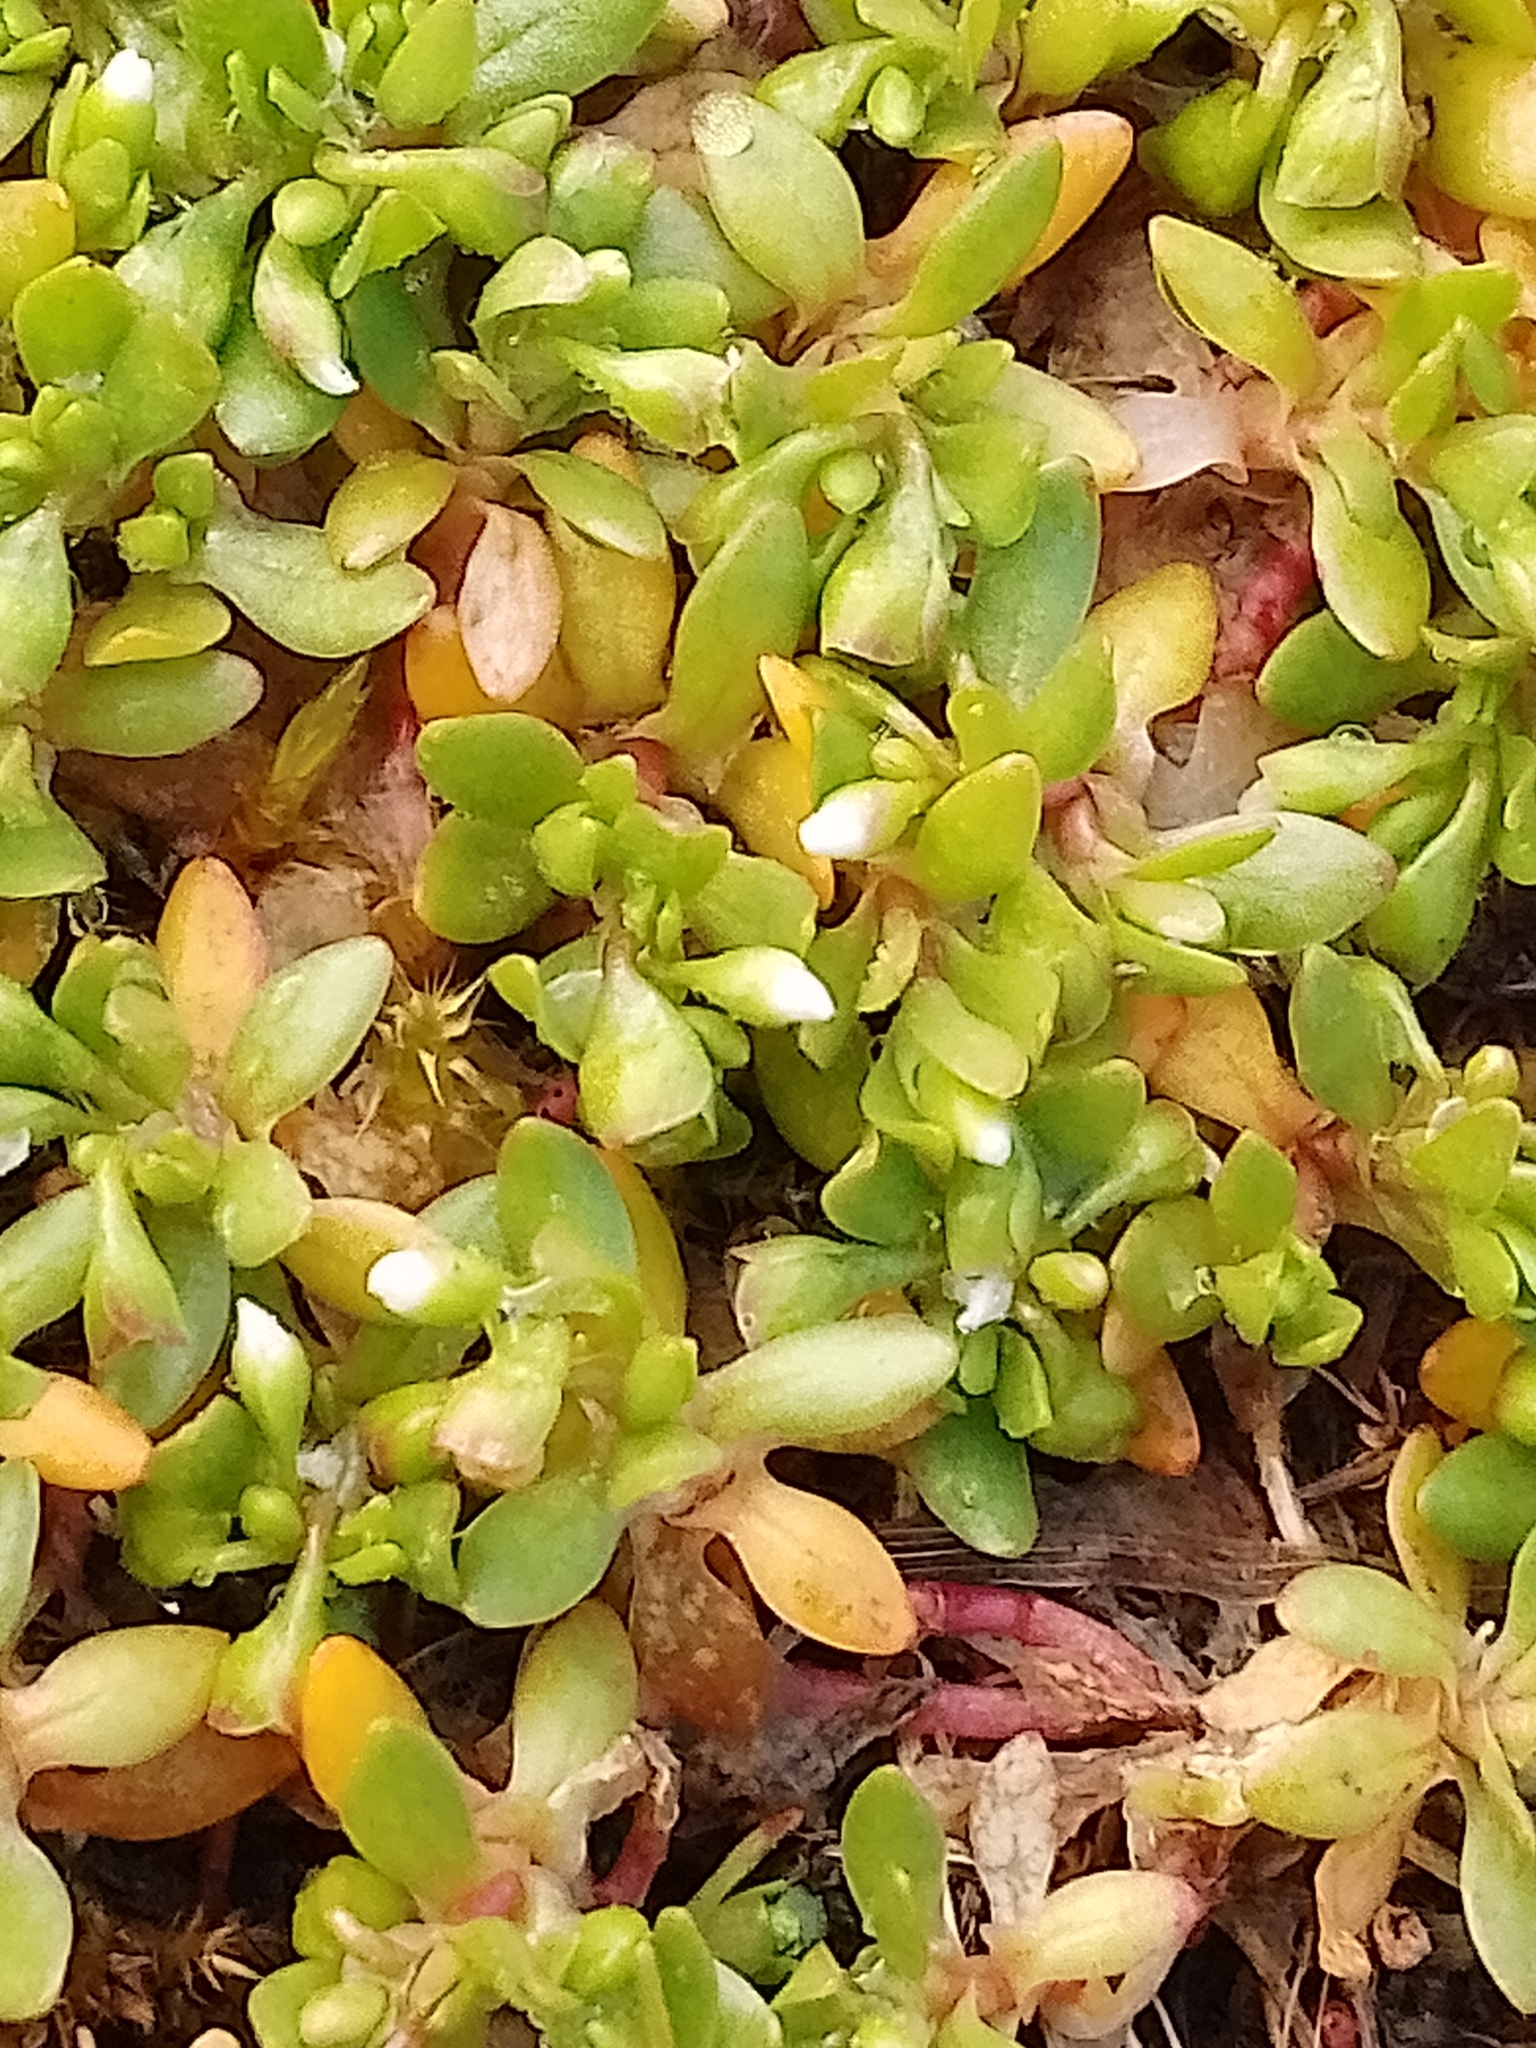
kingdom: Plantae
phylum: Tracheophyta
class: Magnoliopsida
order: Caryophyllales
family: Montiaceae
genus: Montia
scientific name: Montia fontana
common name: Blinks
